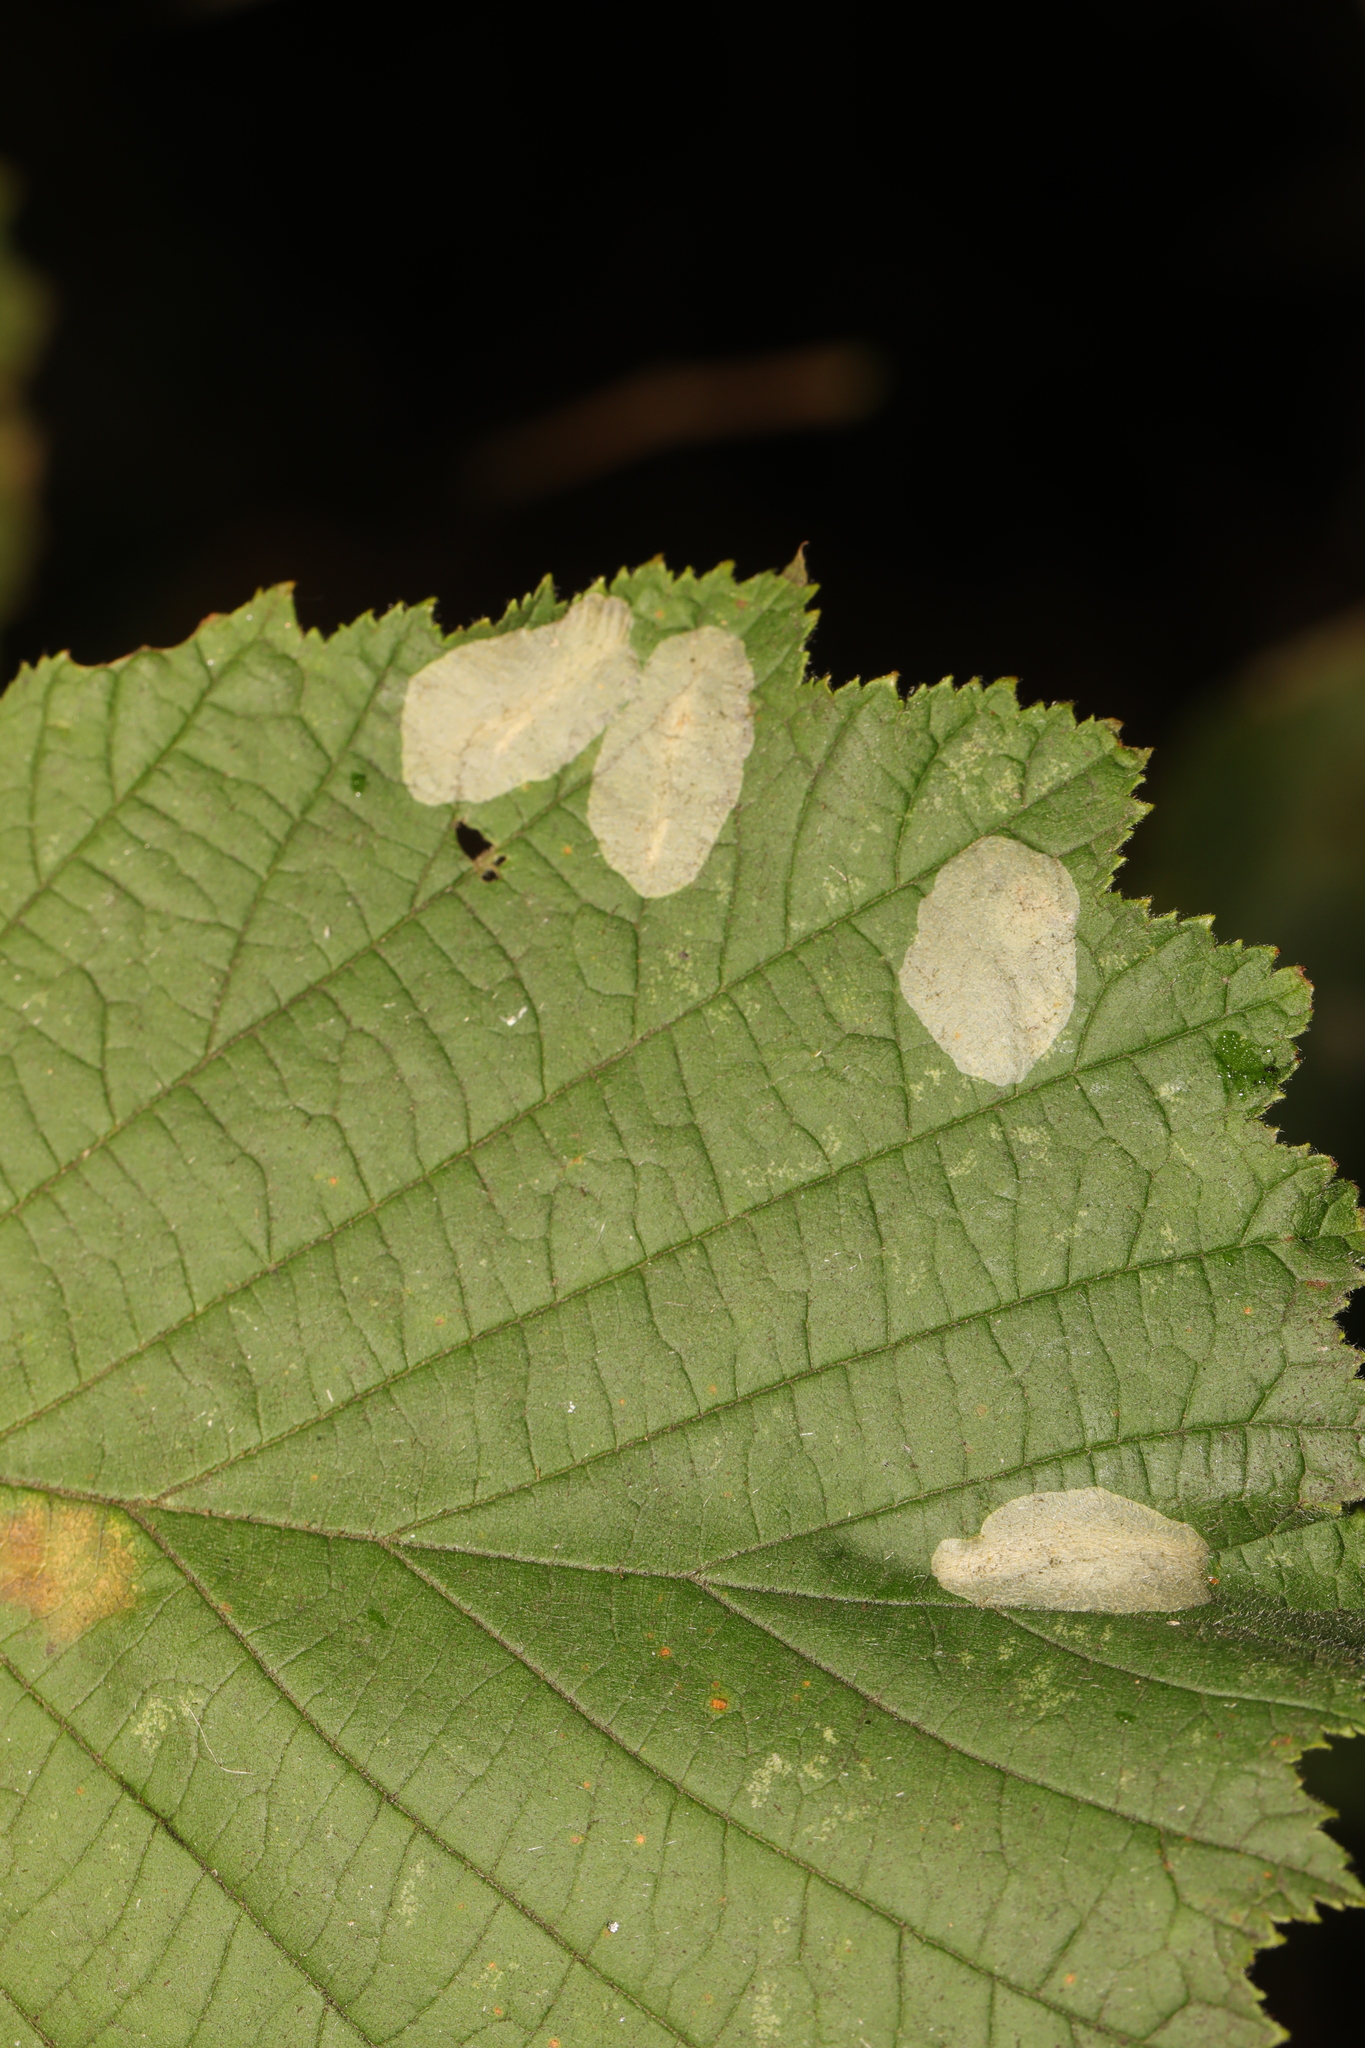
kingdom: Animalia
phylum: Arthropoda
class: Insecta
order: Lepidoptera
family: Gracillariidae
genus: Phyllonorycter
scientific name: Phyllonorycter coryli
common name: Nut-leaf blister moth
